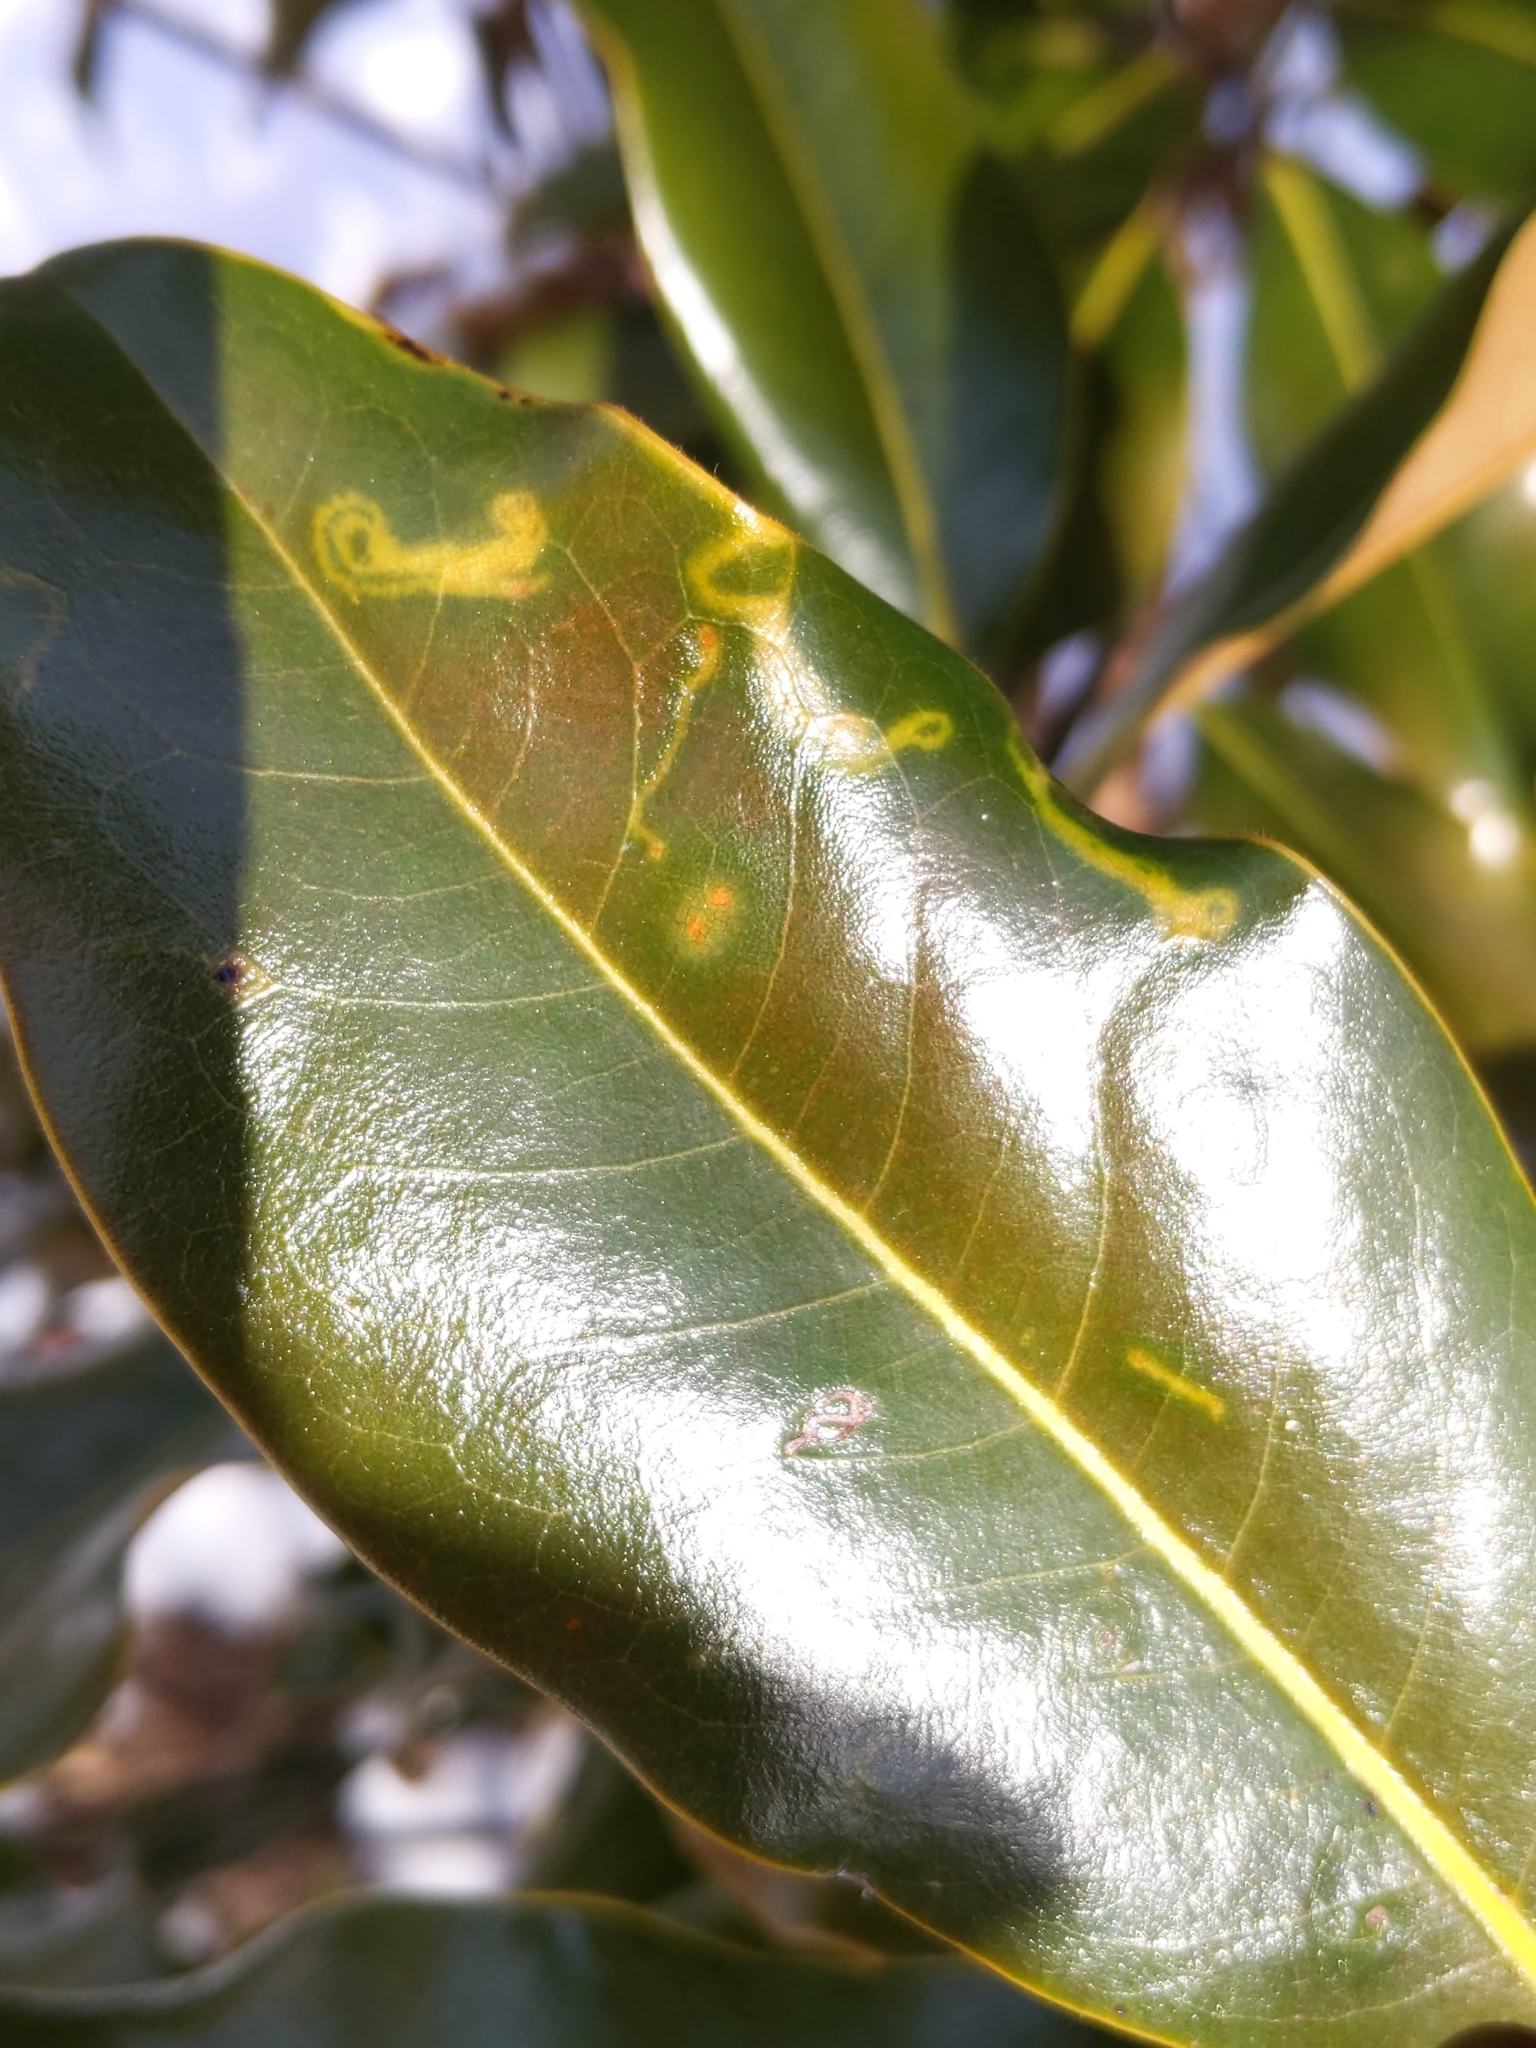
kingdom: Animalia
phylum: Arthropoda
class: Insecta
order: Lepidoptera
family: Gracillariidae
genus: Phyllocnistis
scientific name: Phyllocnistis liriodendronella
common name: Tulip tree leaf miner
